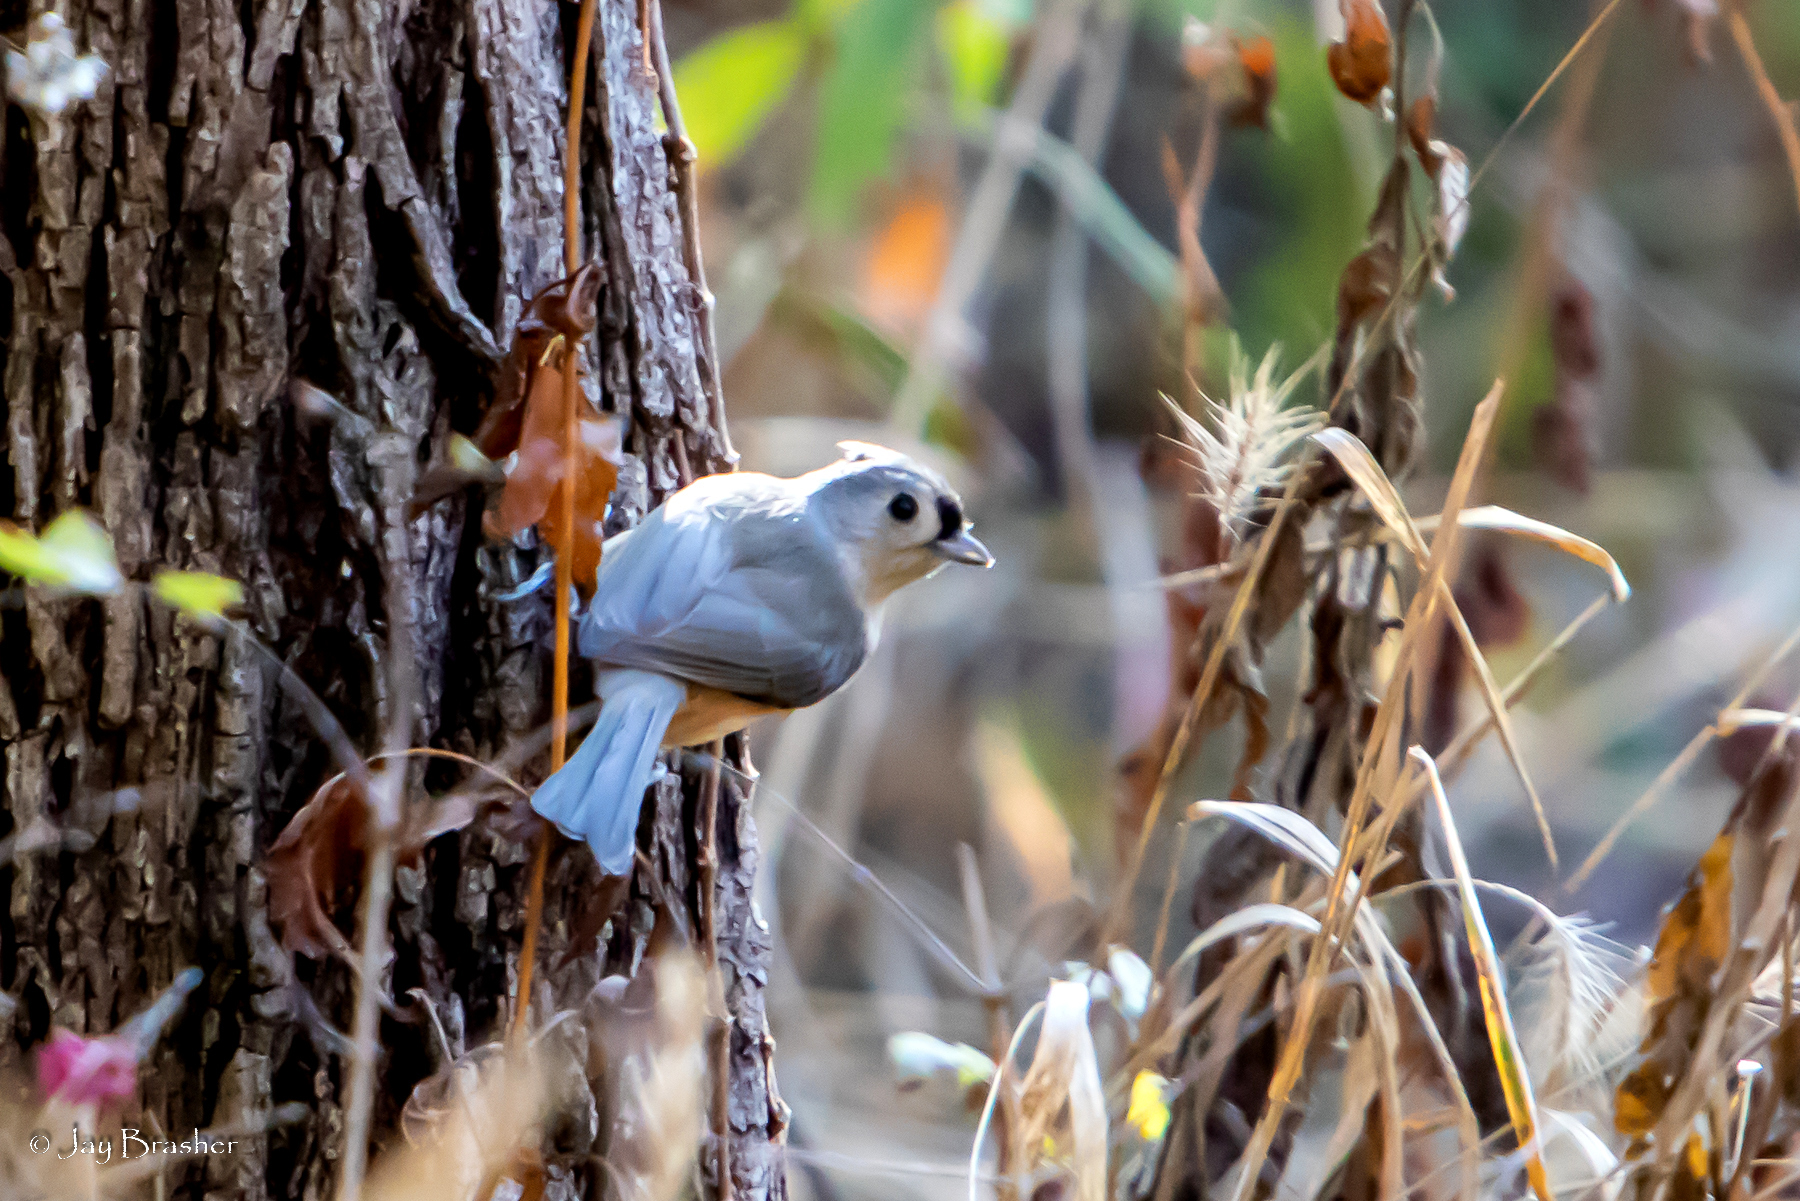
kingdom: Animalia
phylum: Chordata
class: Aves
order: Passeriformes
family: Paridae
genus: Baeolophus
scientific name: Baeolophus bicolor
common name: Tufted titmouse
